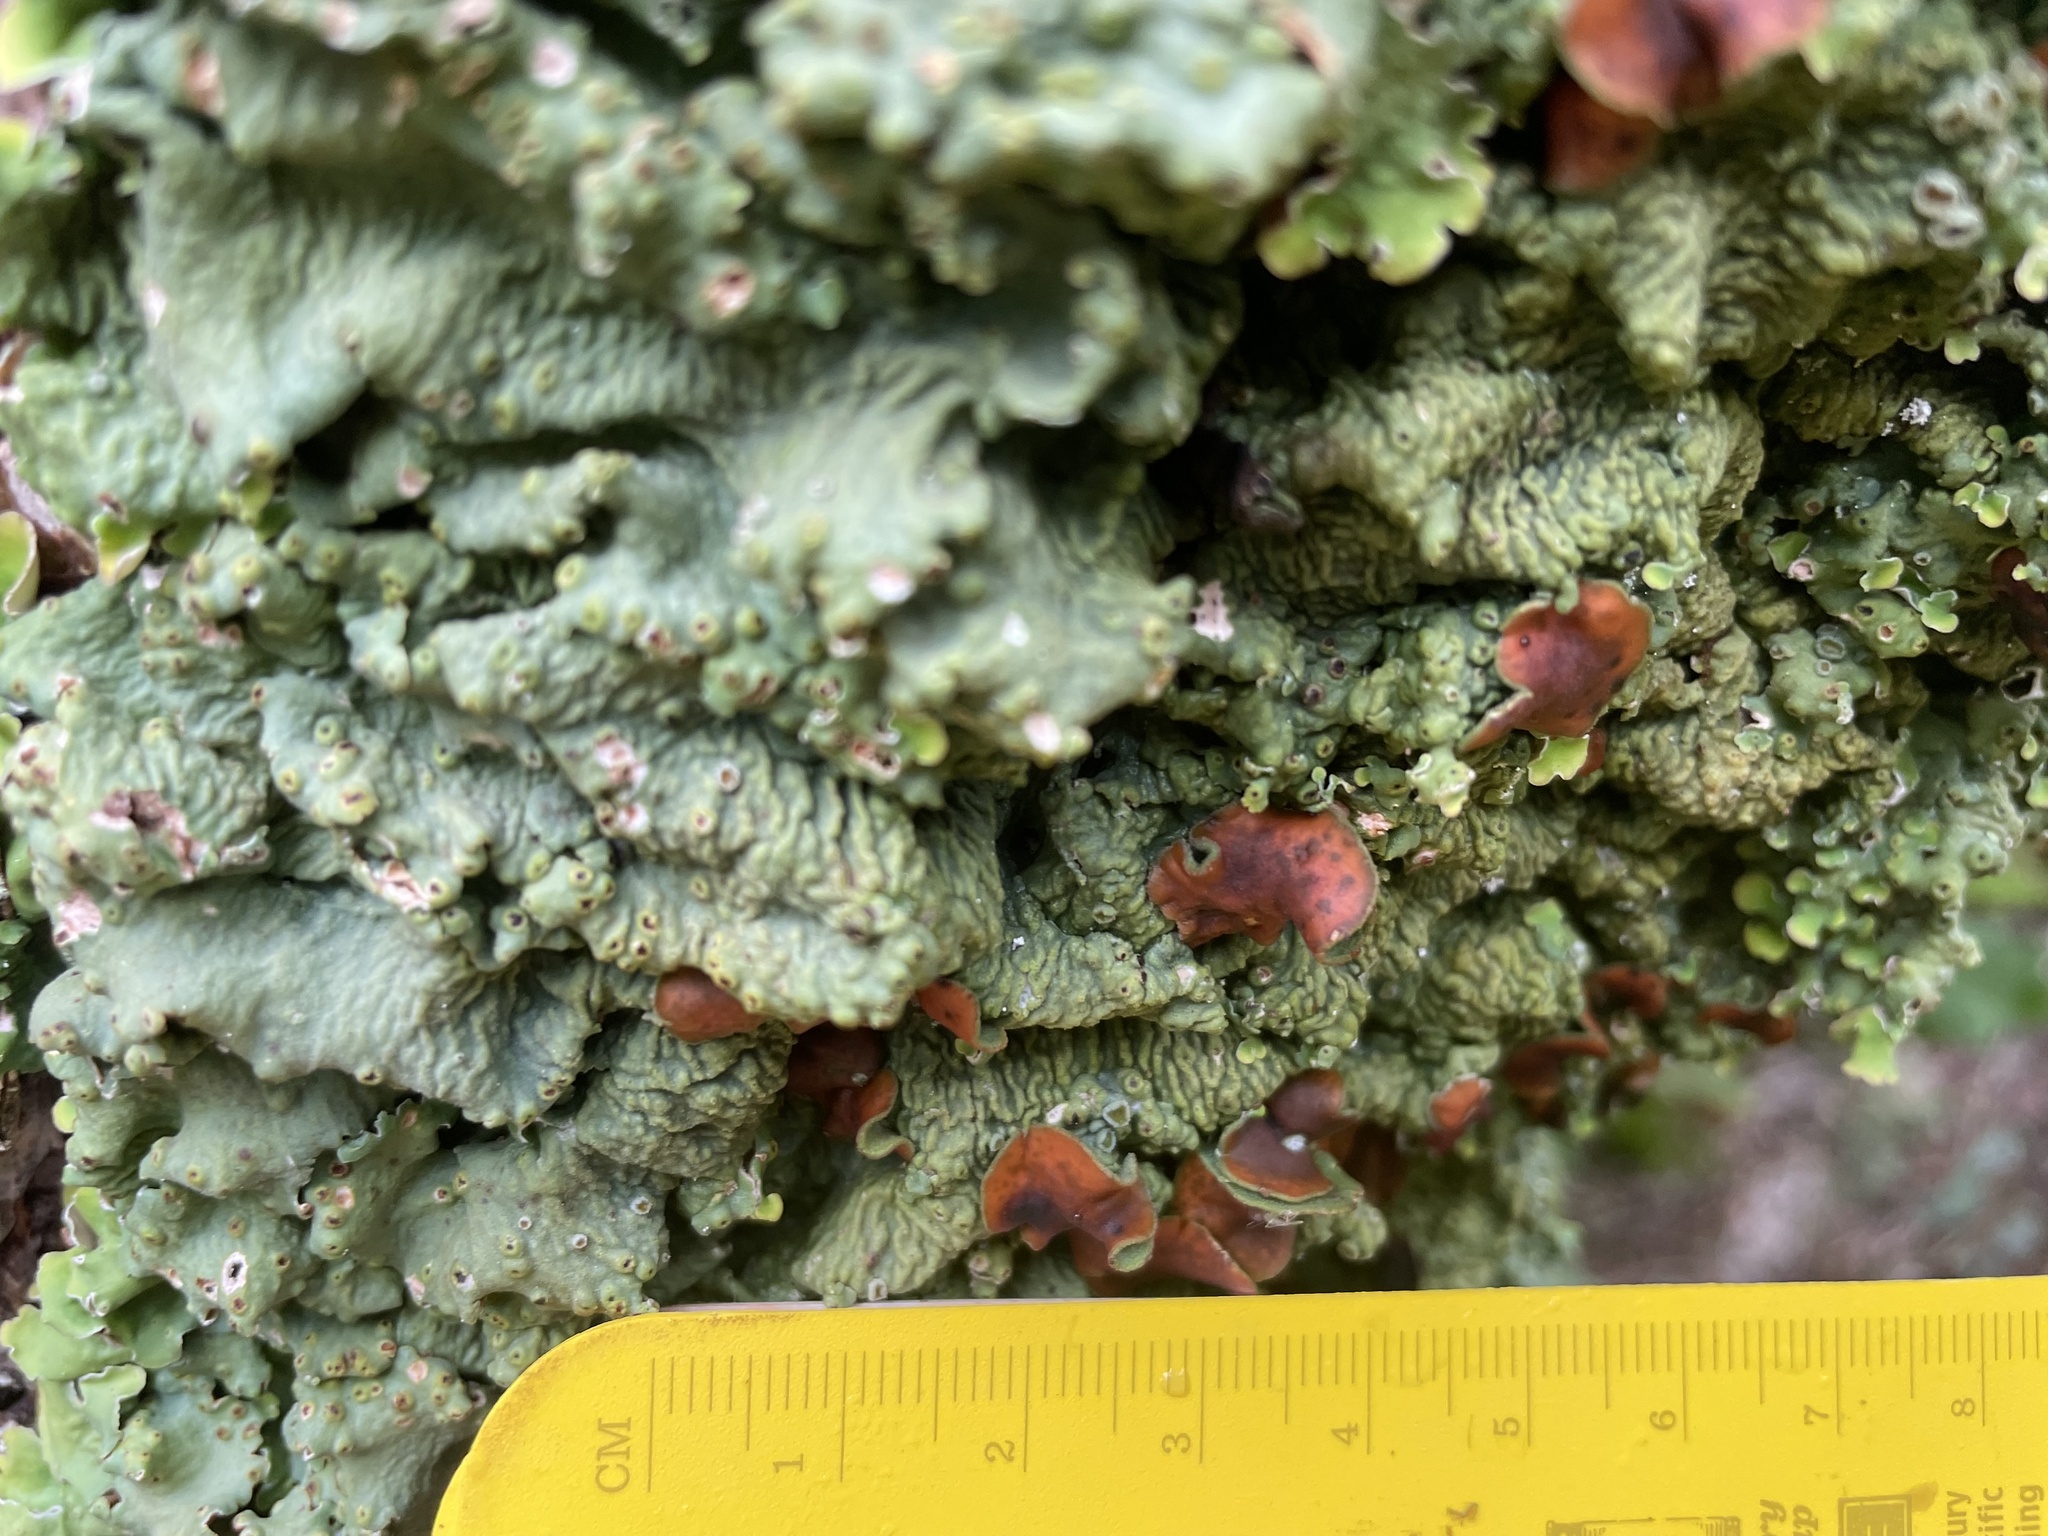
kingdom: Fungi
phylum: Ascomycota
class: Lecanoromycetes
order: Peltigerales
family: Lobariaceae
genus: Ricasolia
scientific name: Ricasolia quercizans
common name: Smooth lungwort
